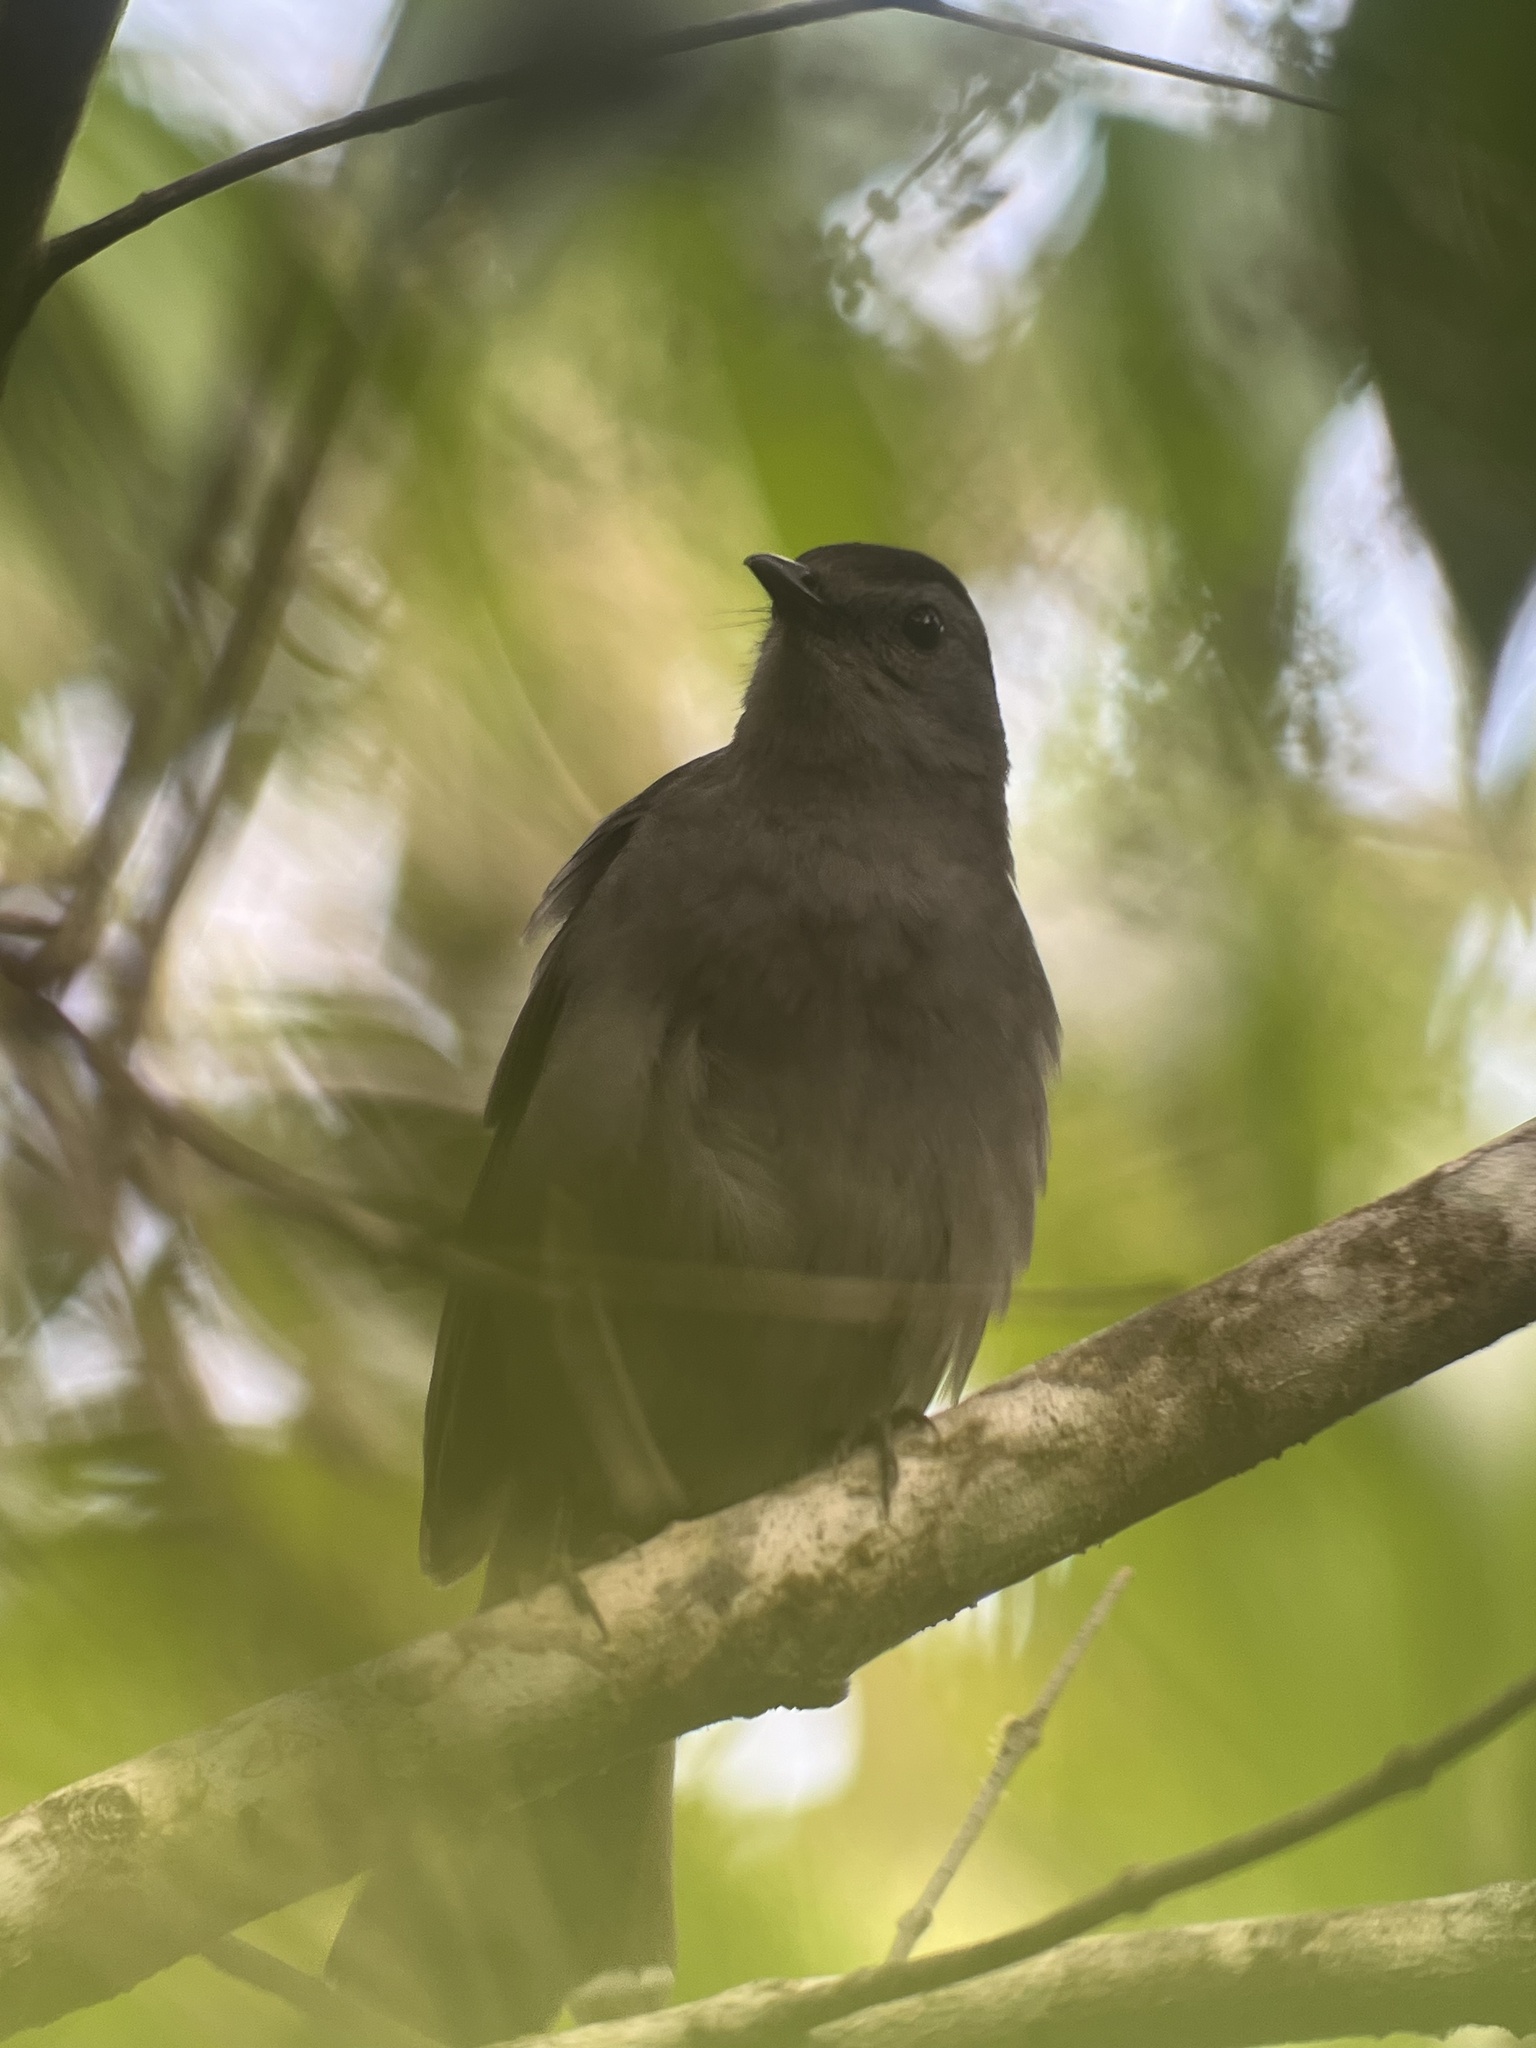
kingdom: Animalia
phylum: Chordata
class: Aves
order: Passeriformes
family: Mimidae
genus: Dumetella
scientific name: Dumetella carolinensis
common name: Gray catbird
